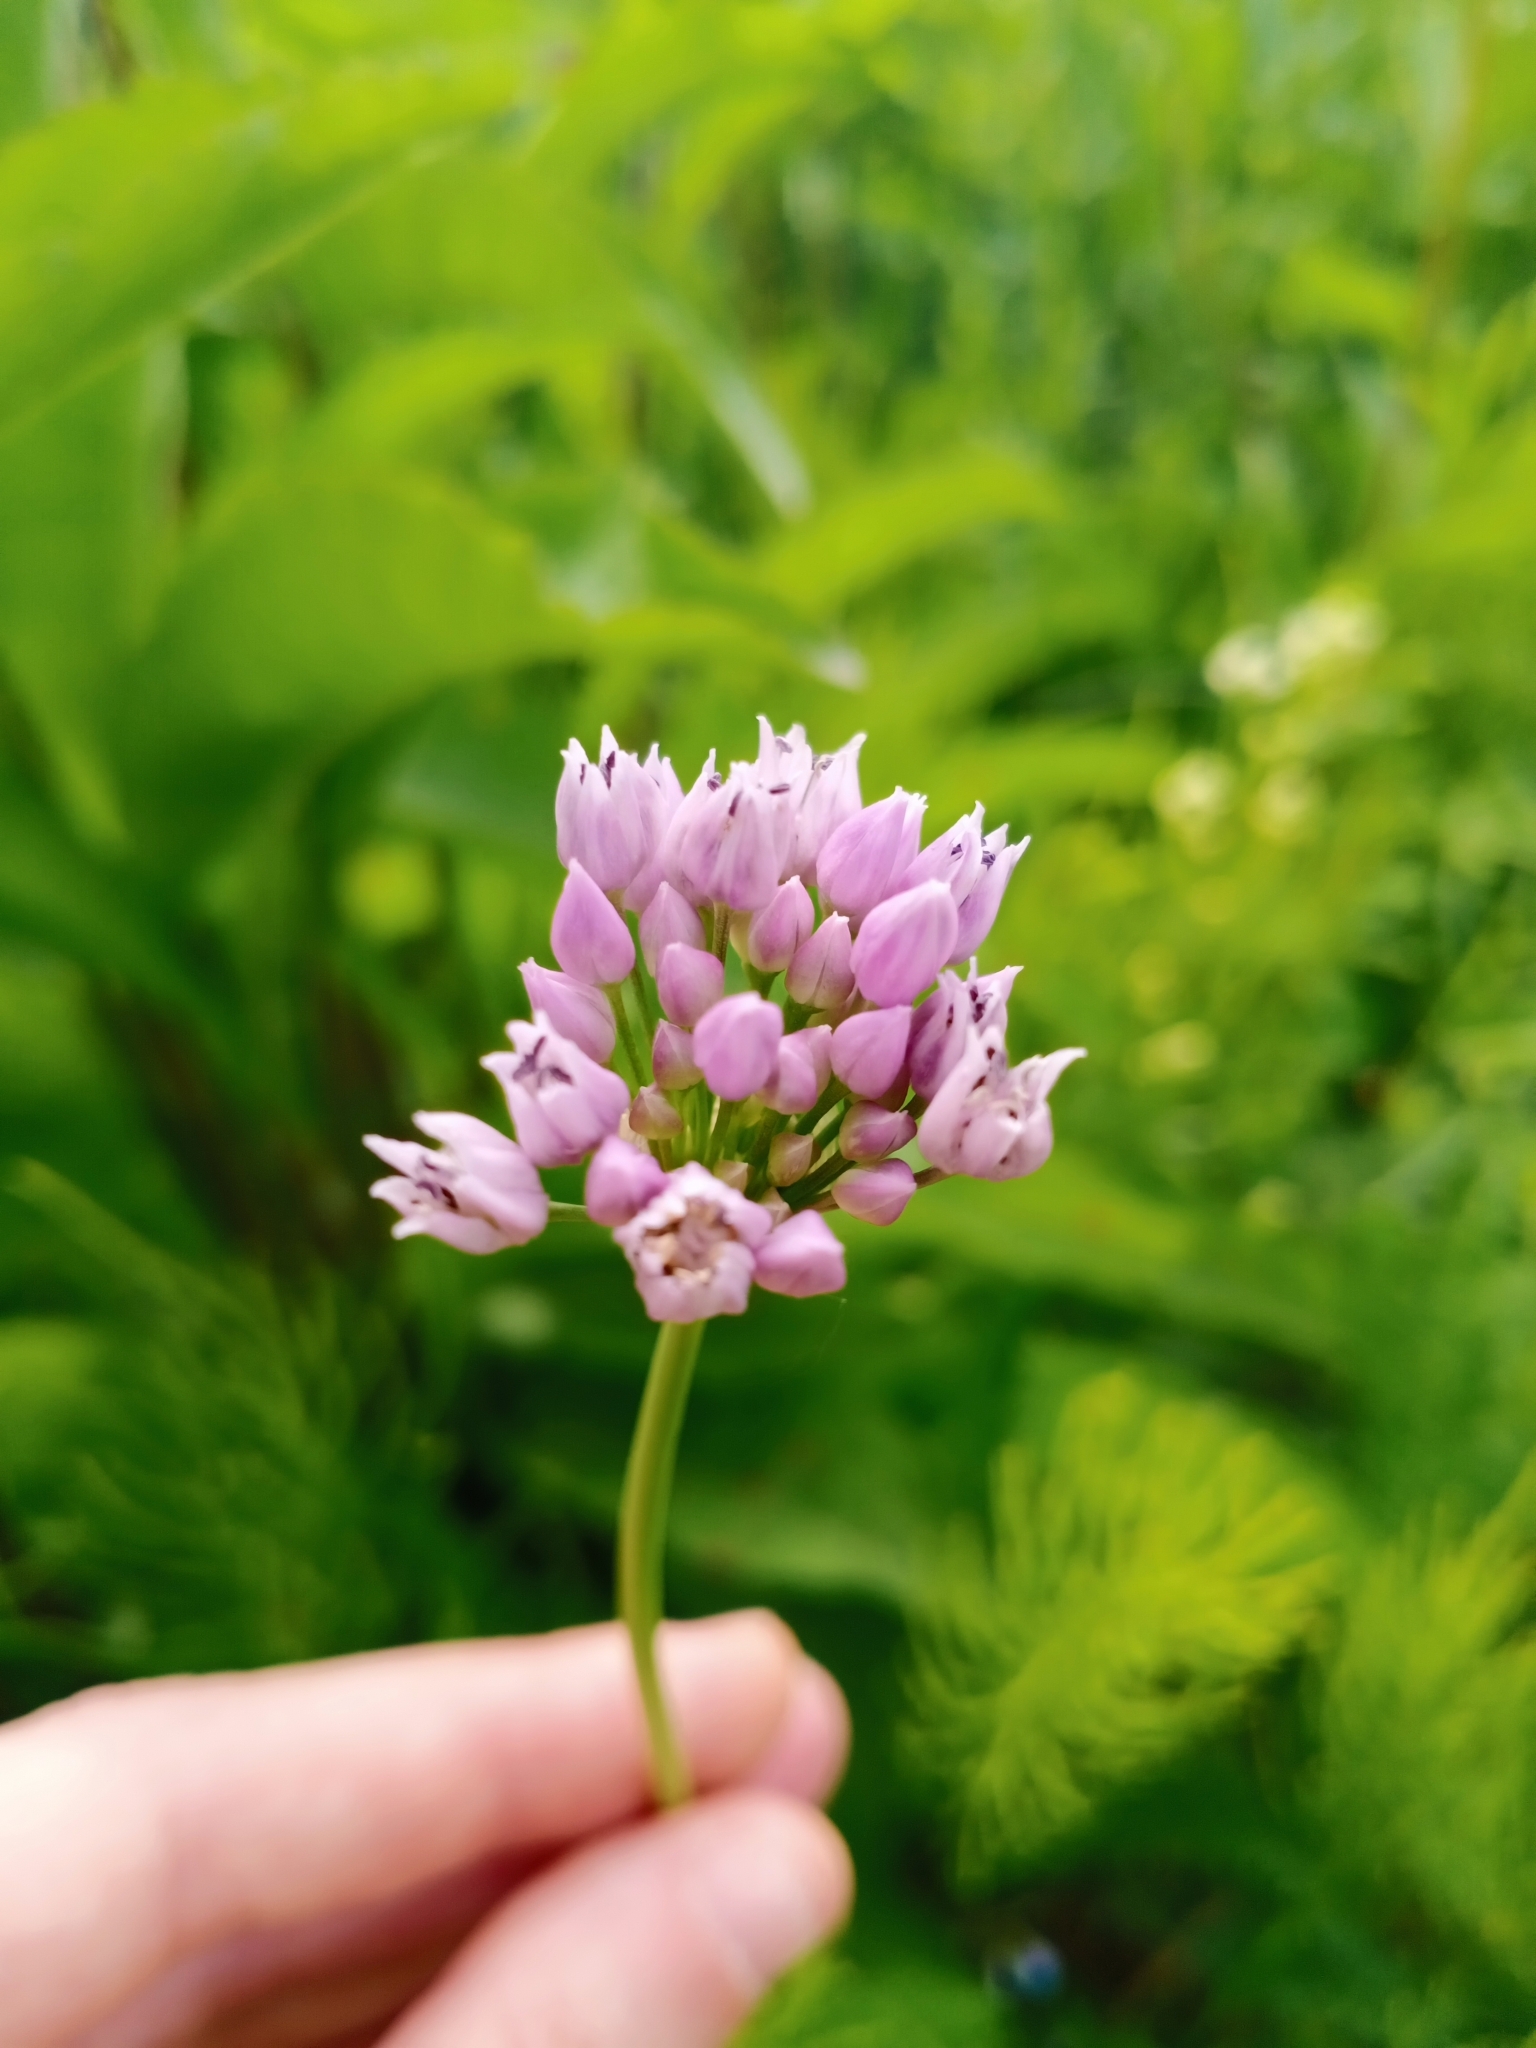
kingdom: Plantae
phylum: Tracheophyta
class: Liliopsida
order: Asparagales
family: Amaryllidaceae
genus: Allium
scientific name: Allium angulosum
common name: Mouse garlic
